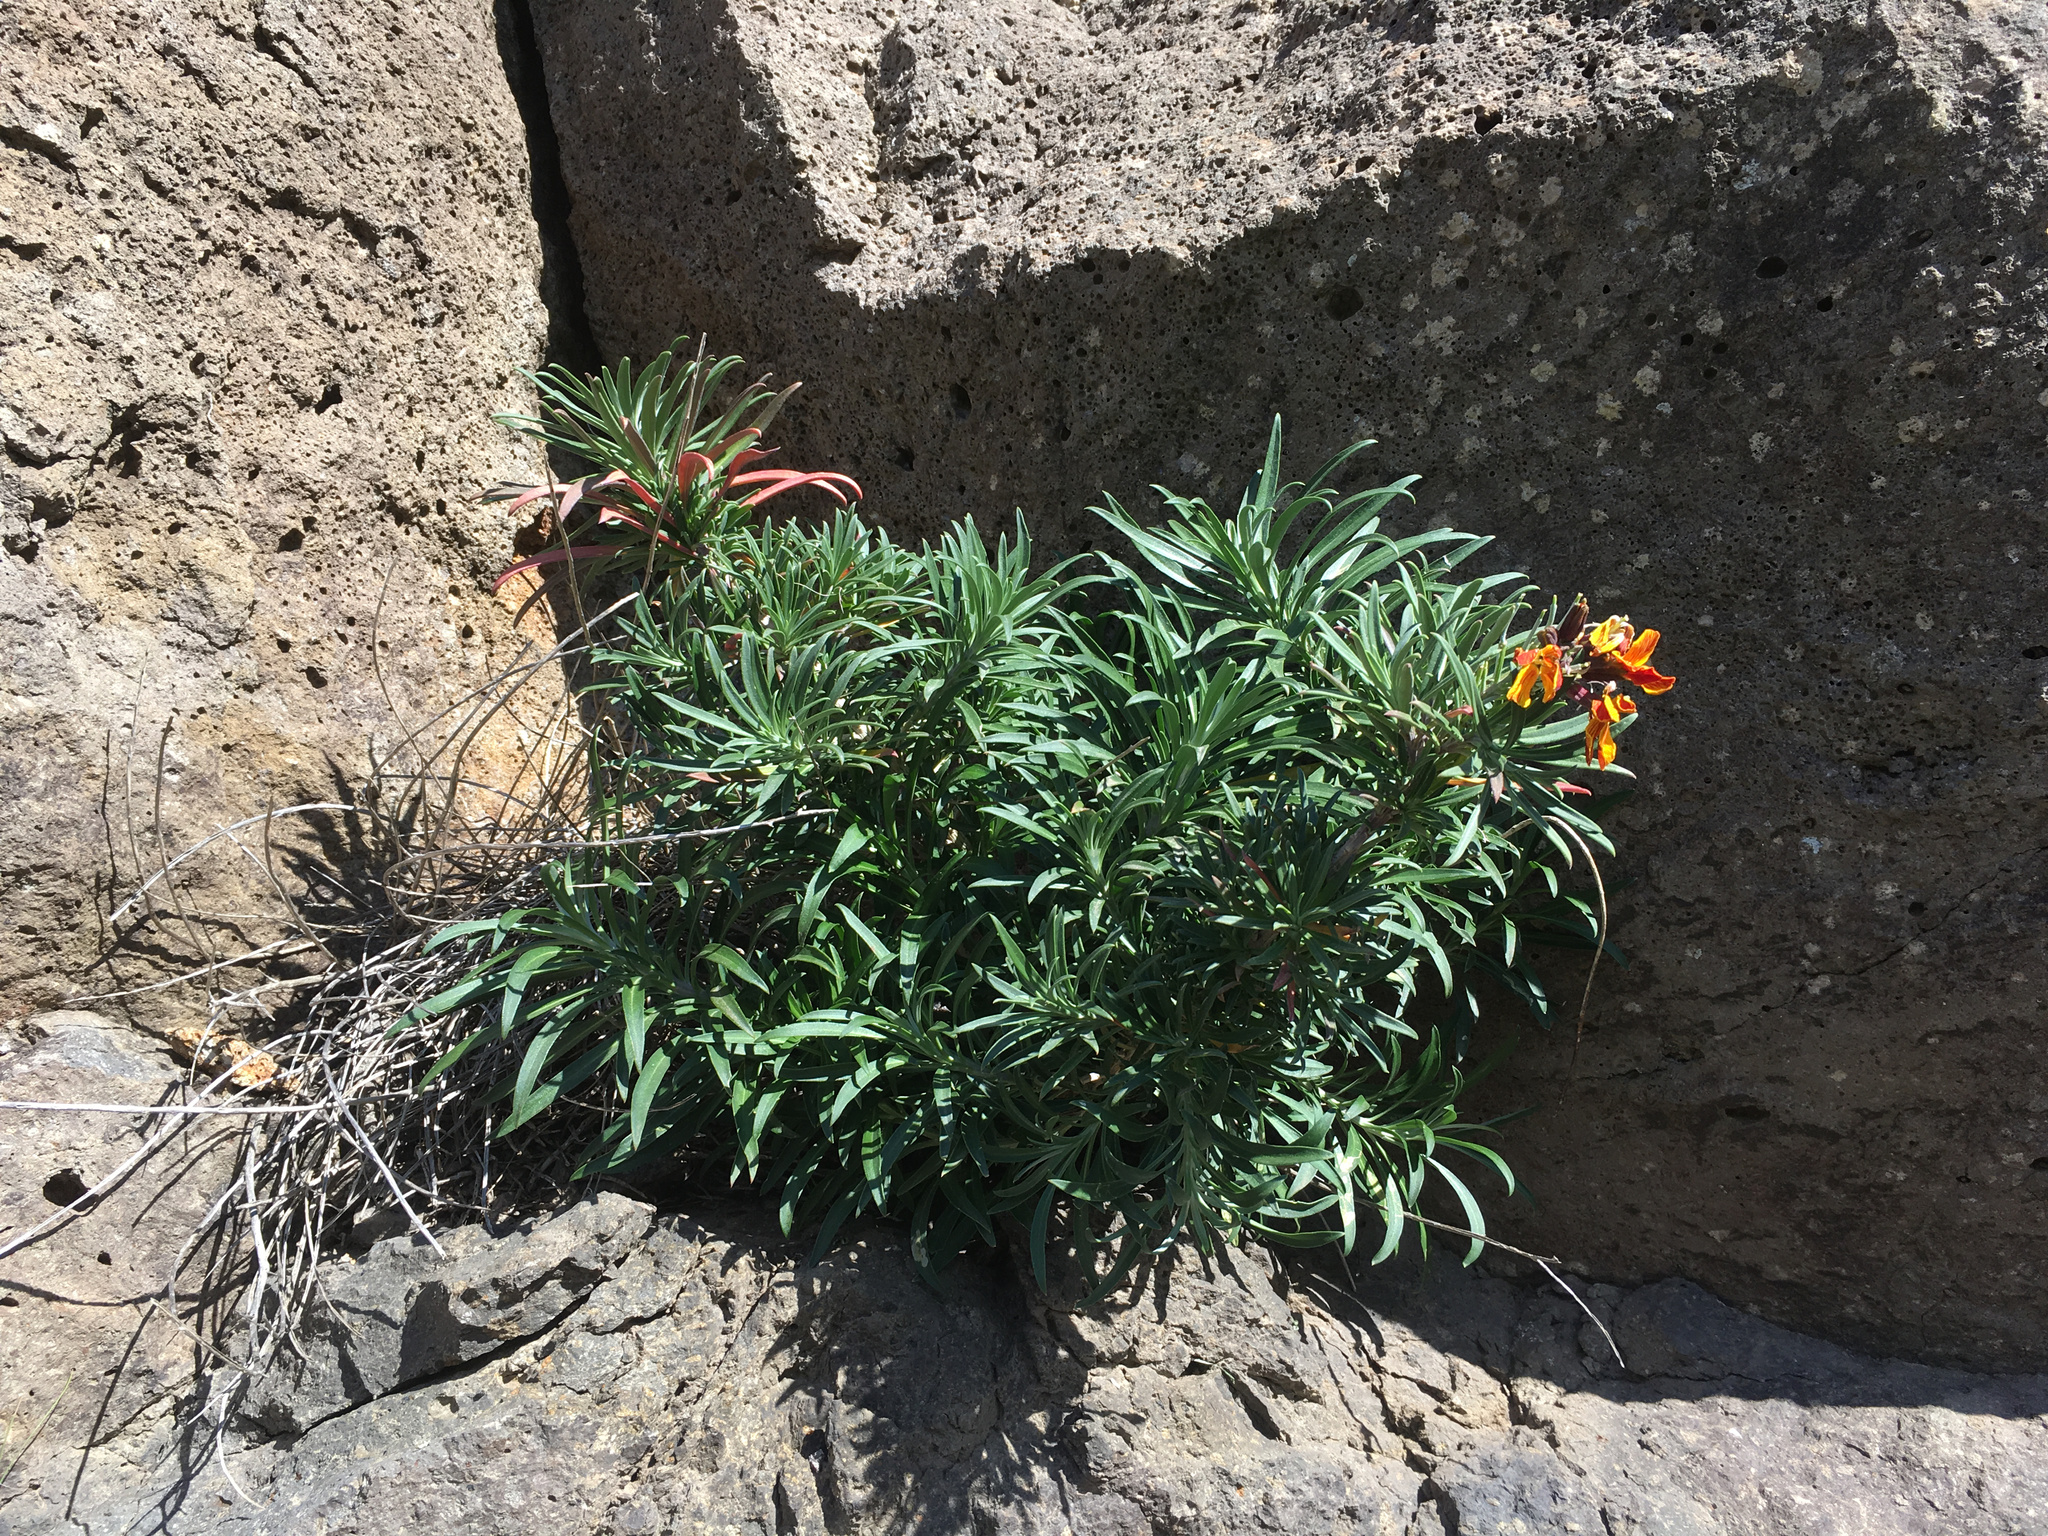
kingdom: Plantae
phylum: Tracheophyta
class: Magnoliopsida
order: Brassicales
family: Brassicaceae
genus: Erysimum
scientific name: Erysimum cheiri
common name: Wallflower
